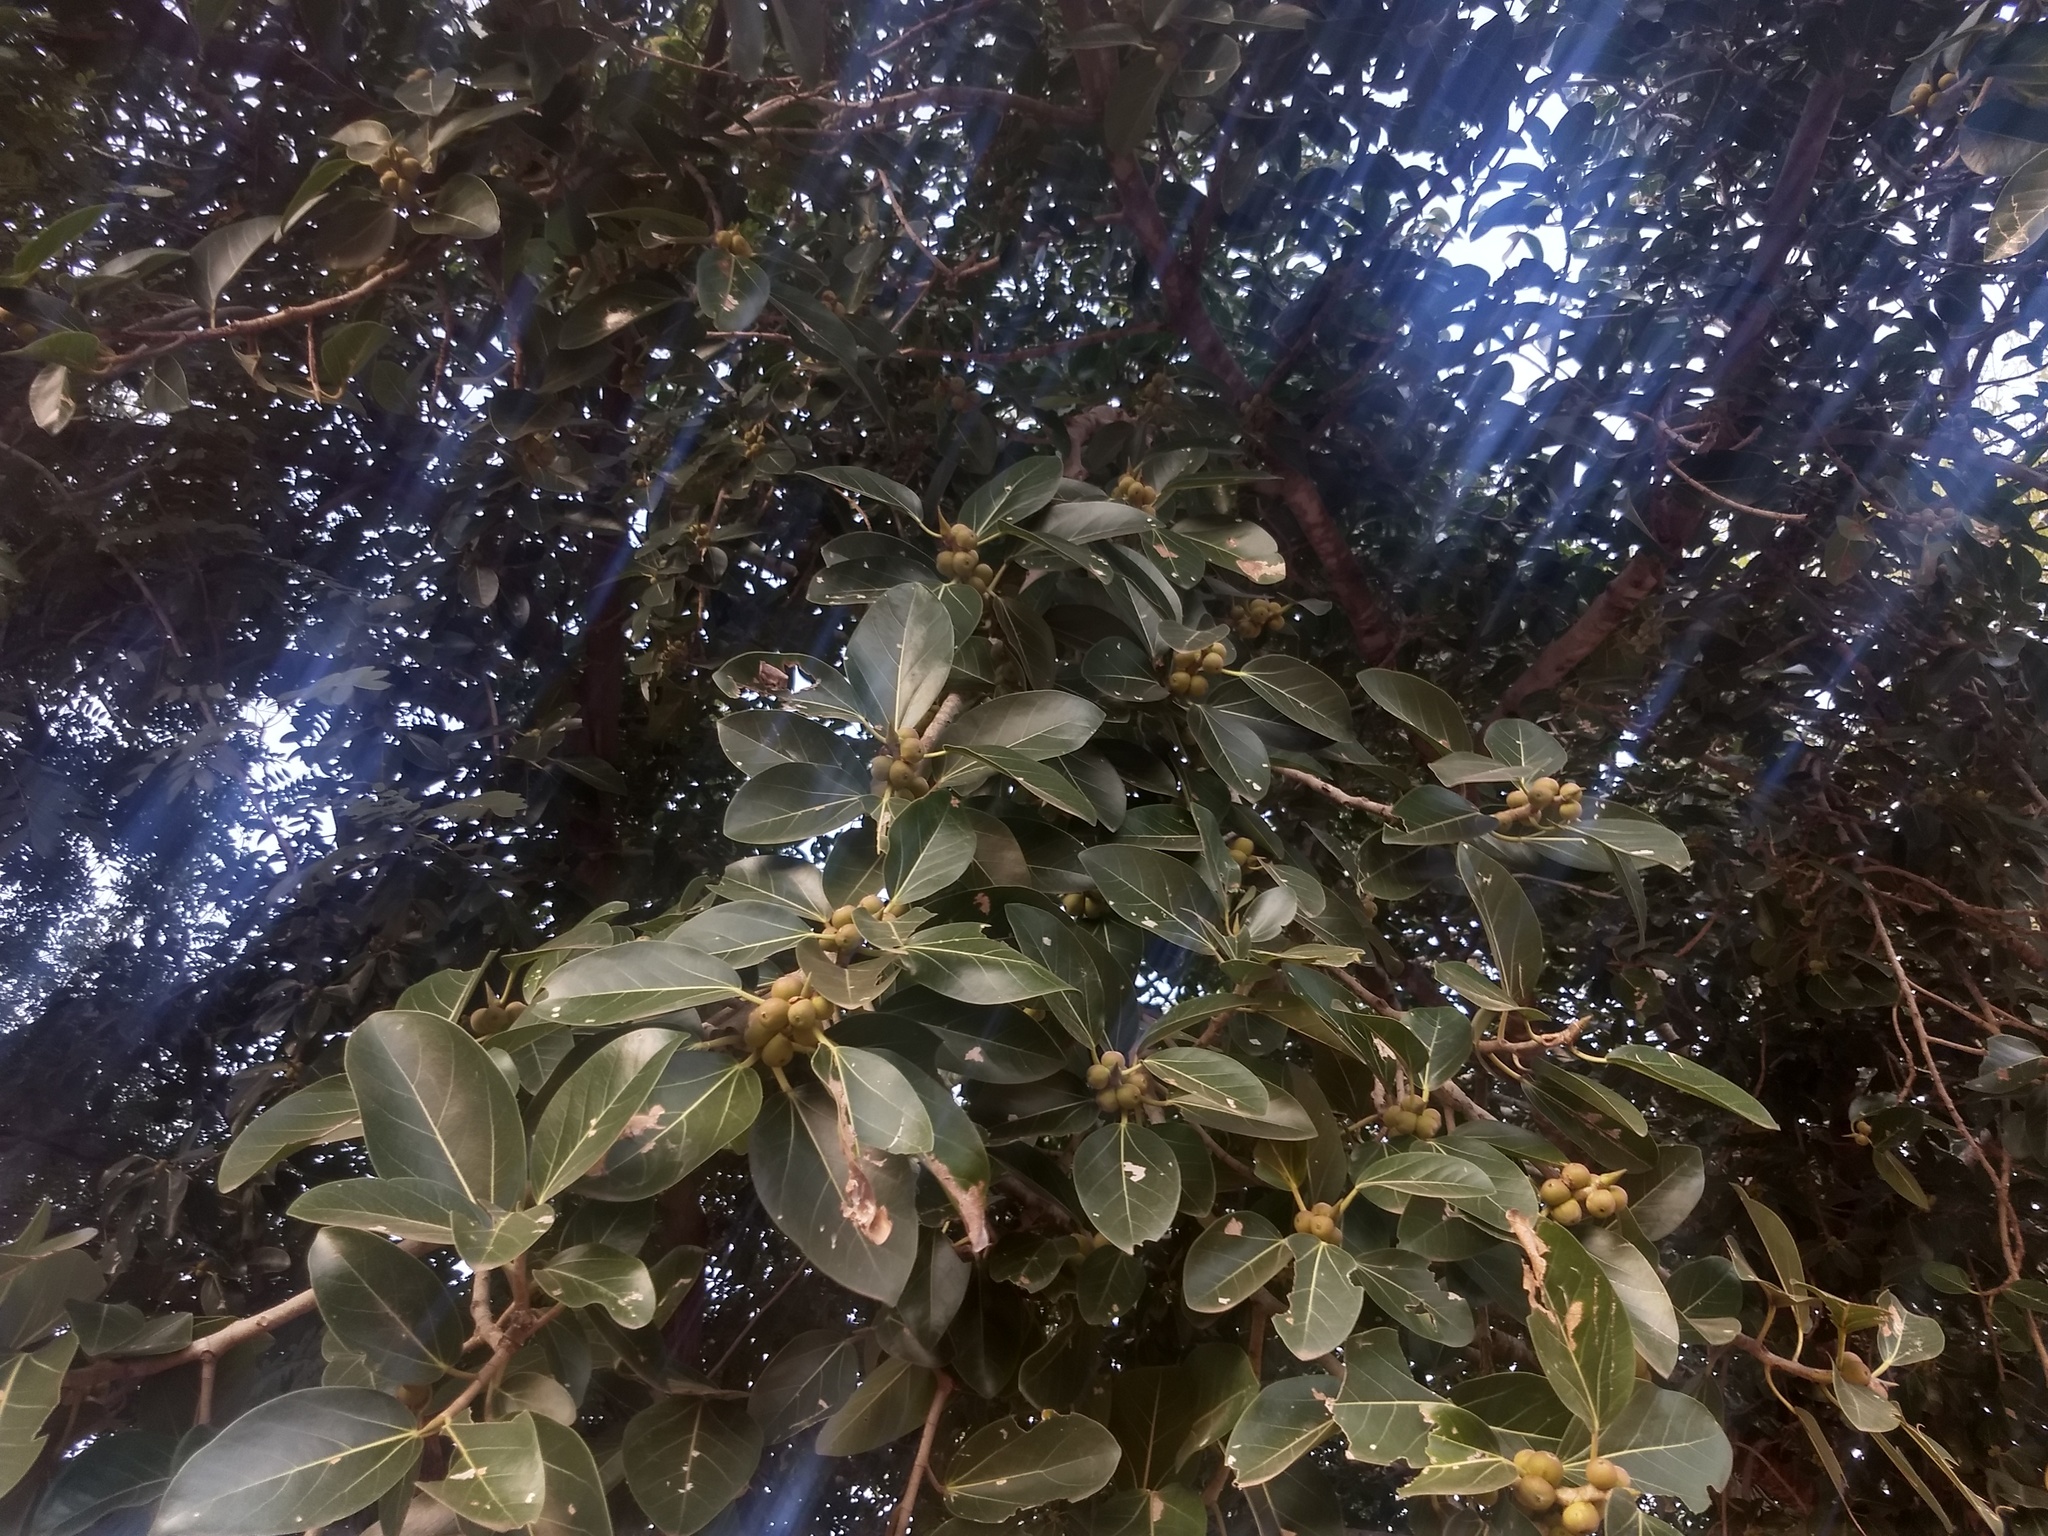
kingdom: Plantae
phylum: Tracheophyta
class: Magnoliopsida
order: Rosales
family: Moraceae
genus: Ficus
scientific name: Ficus benghalensis
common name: Indian banyan
